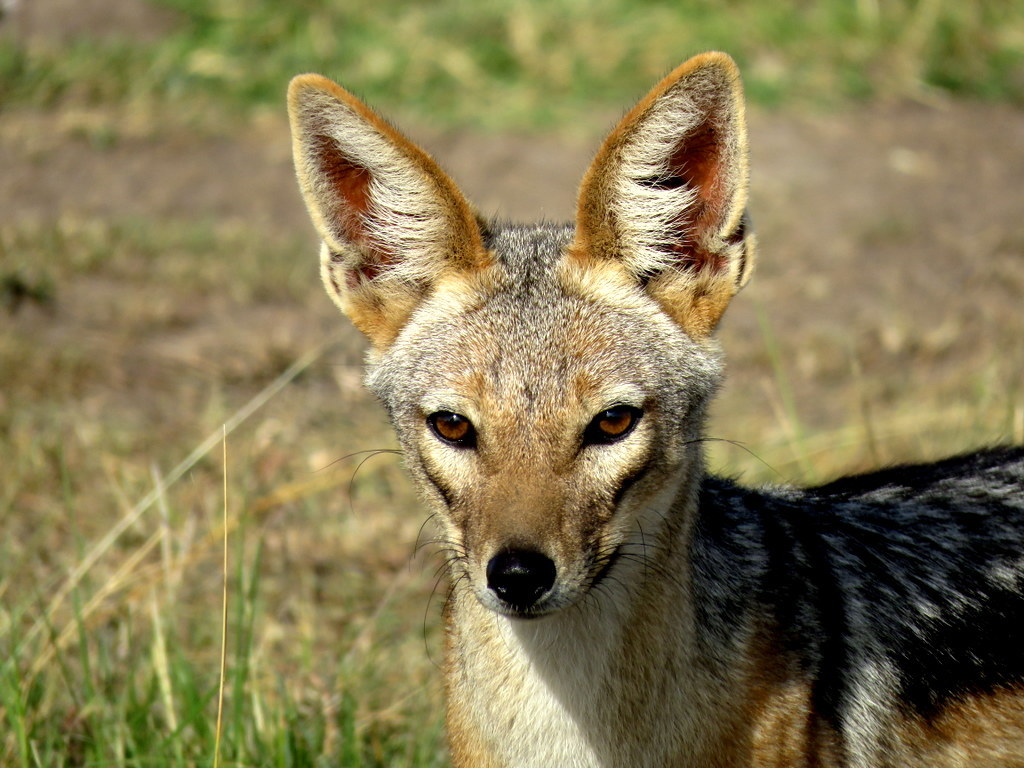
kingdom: Animalia
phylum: Chordata
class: Mammalia
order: Carnivora
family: Canidae
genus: Lupulella
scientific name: Lupulella
